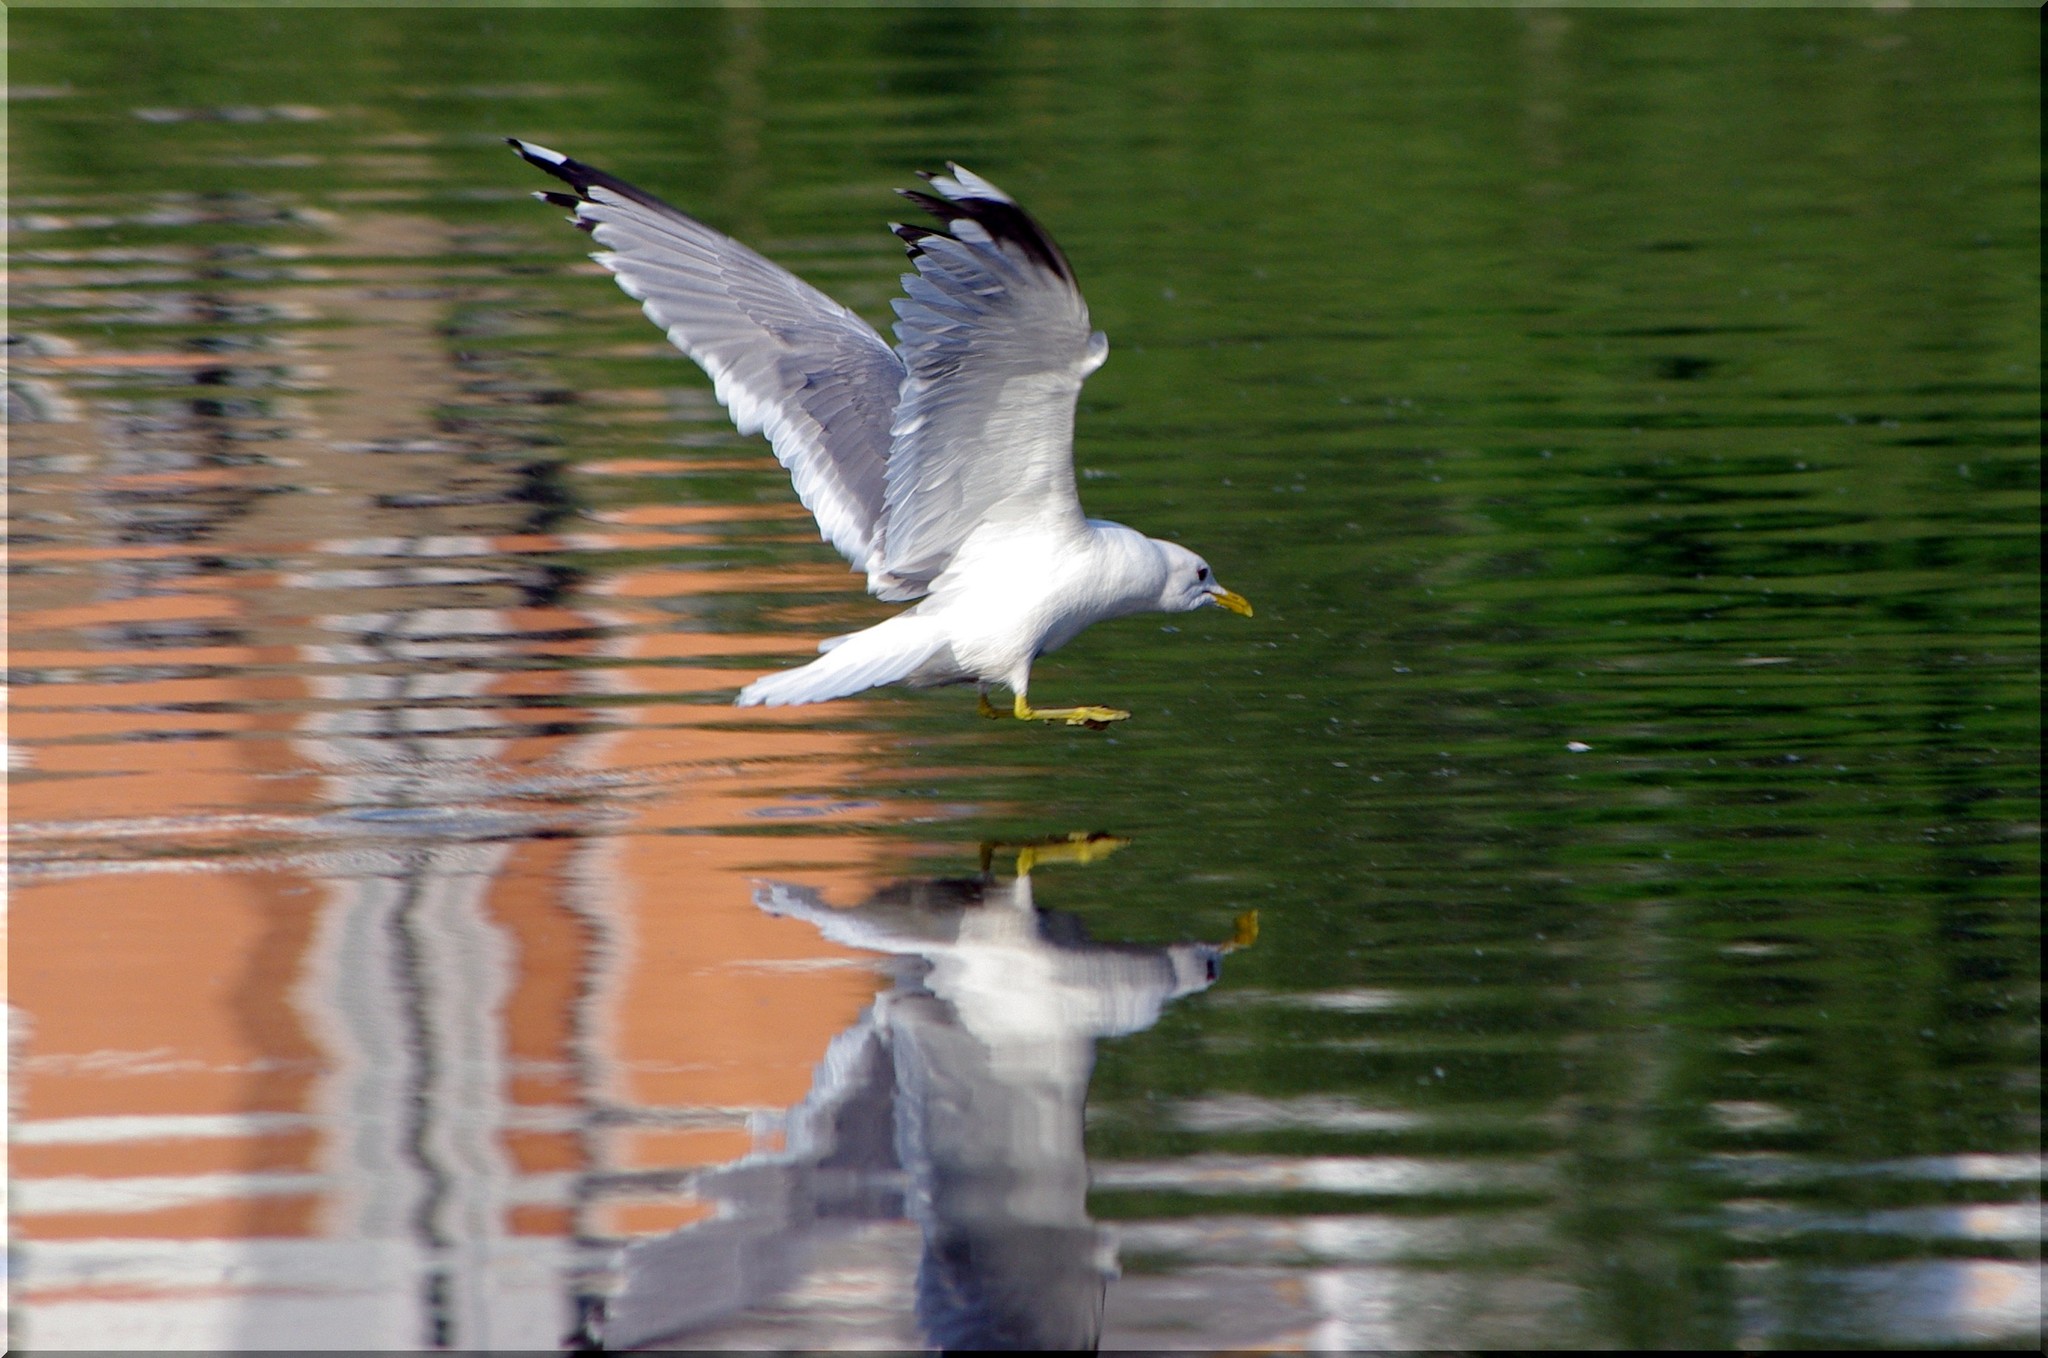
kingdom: Animalia
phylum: Chordata
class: Aves
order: Charadriiformes
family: Laridae
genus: Larus
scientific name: Larus canus
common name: Mew gull
